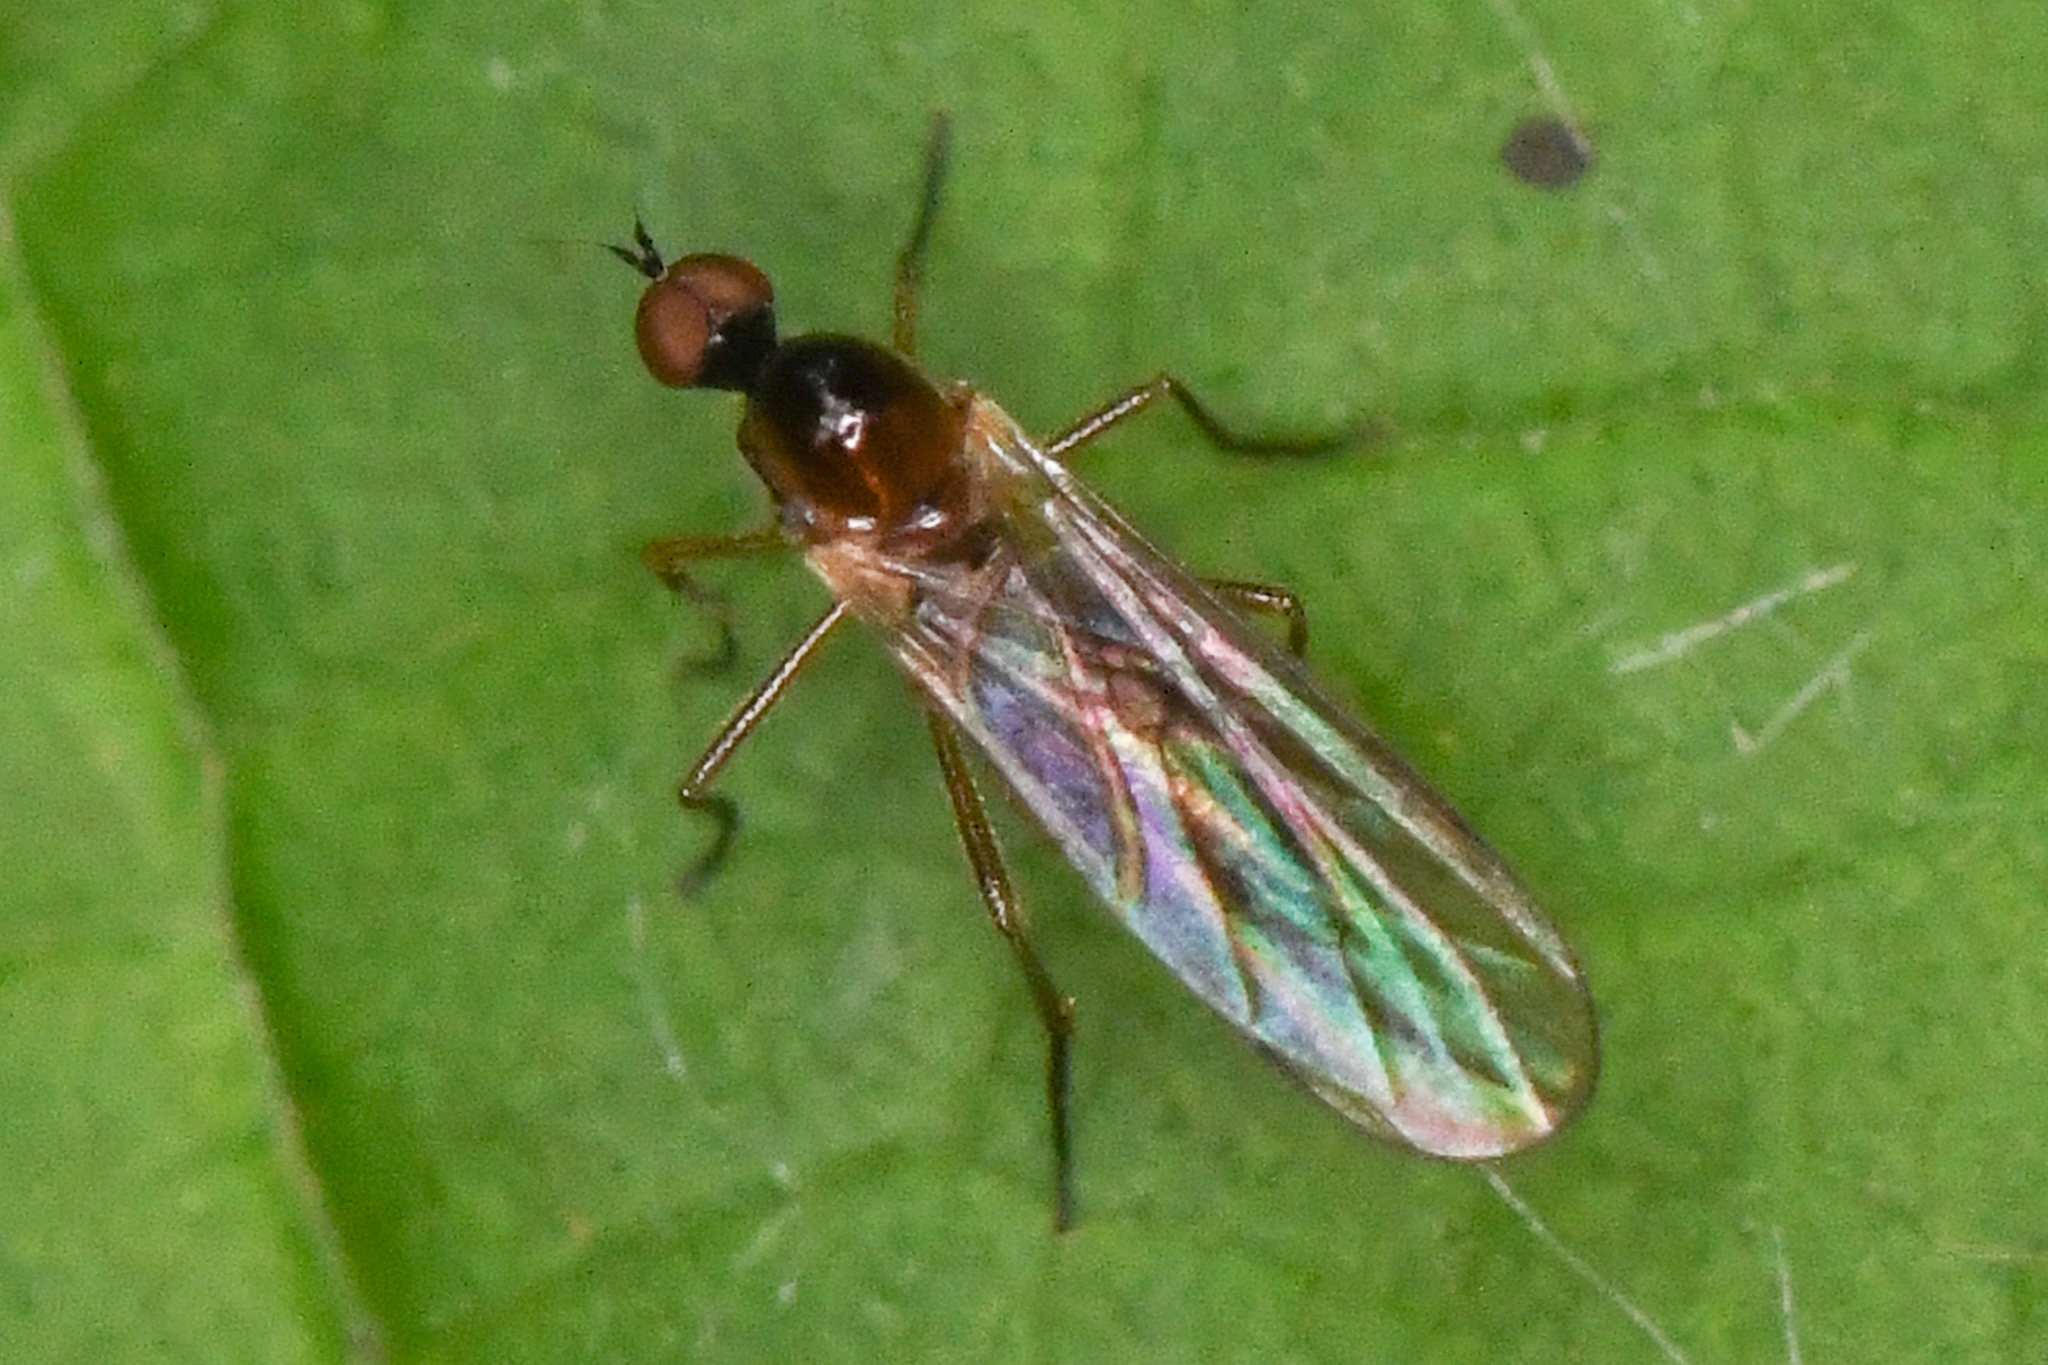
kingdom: Animalia
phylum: Arthropoda
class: Insecta
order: Diptera
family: Hybotidae
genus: Ocydromia
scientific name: Ocydromia glabricula
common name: Dance fly
